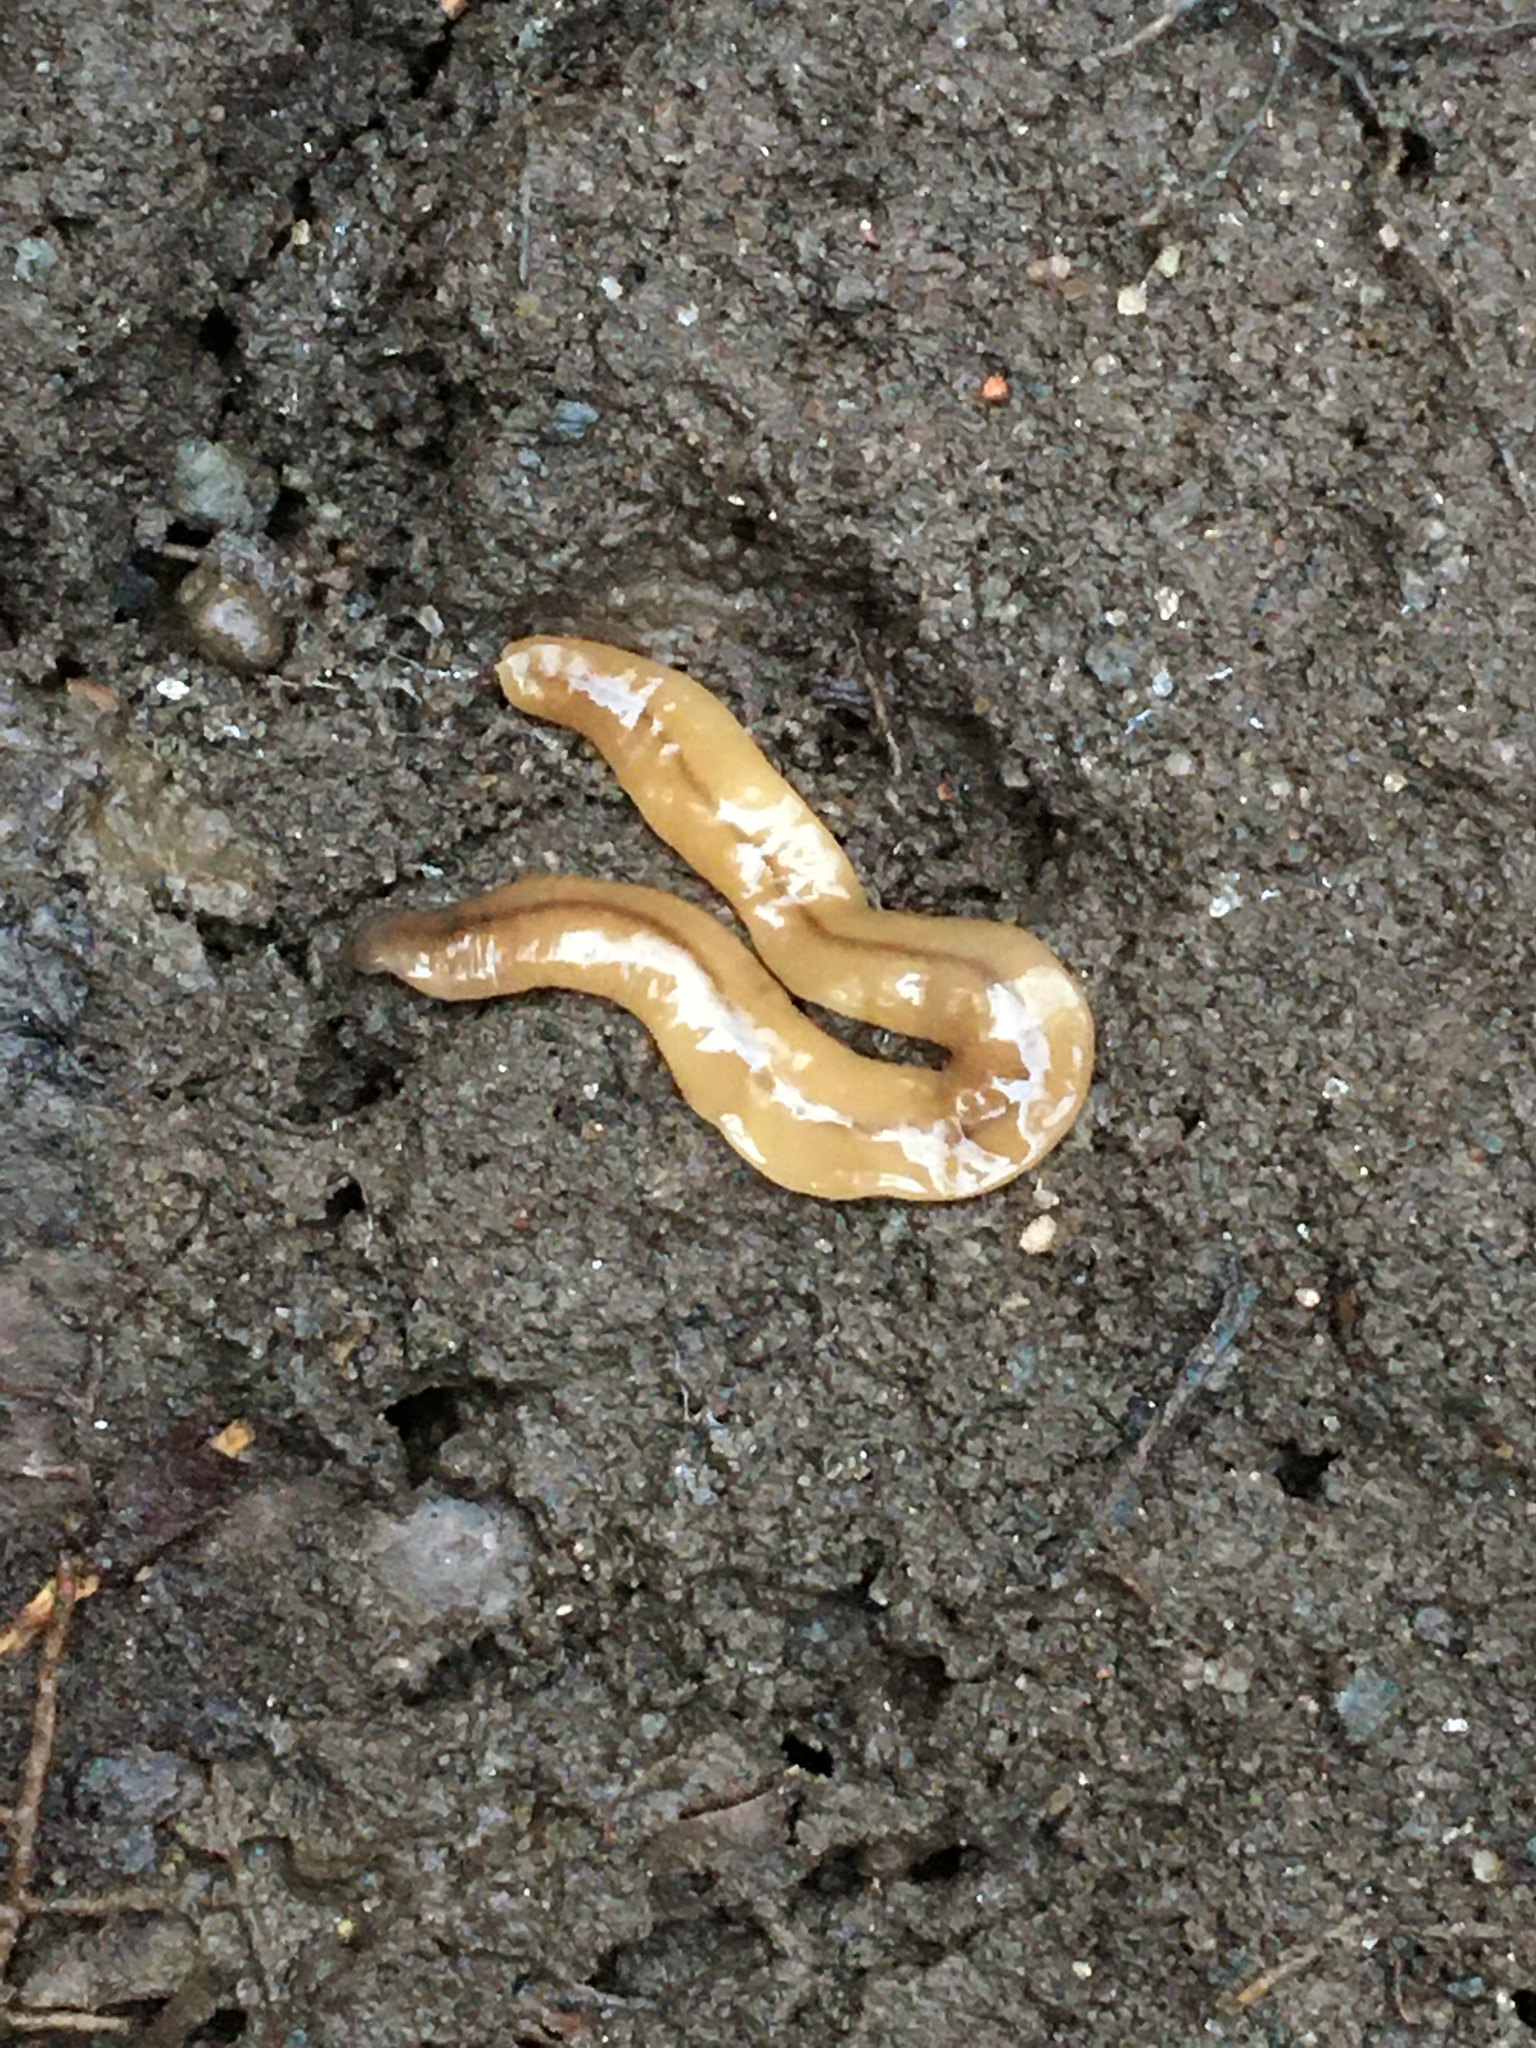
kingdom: Animalia
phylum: Platyhelminthes
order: Tricladida
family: Geoplanidae
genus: Bipalium
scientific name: Bipalium adventitium
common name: Land planarian
